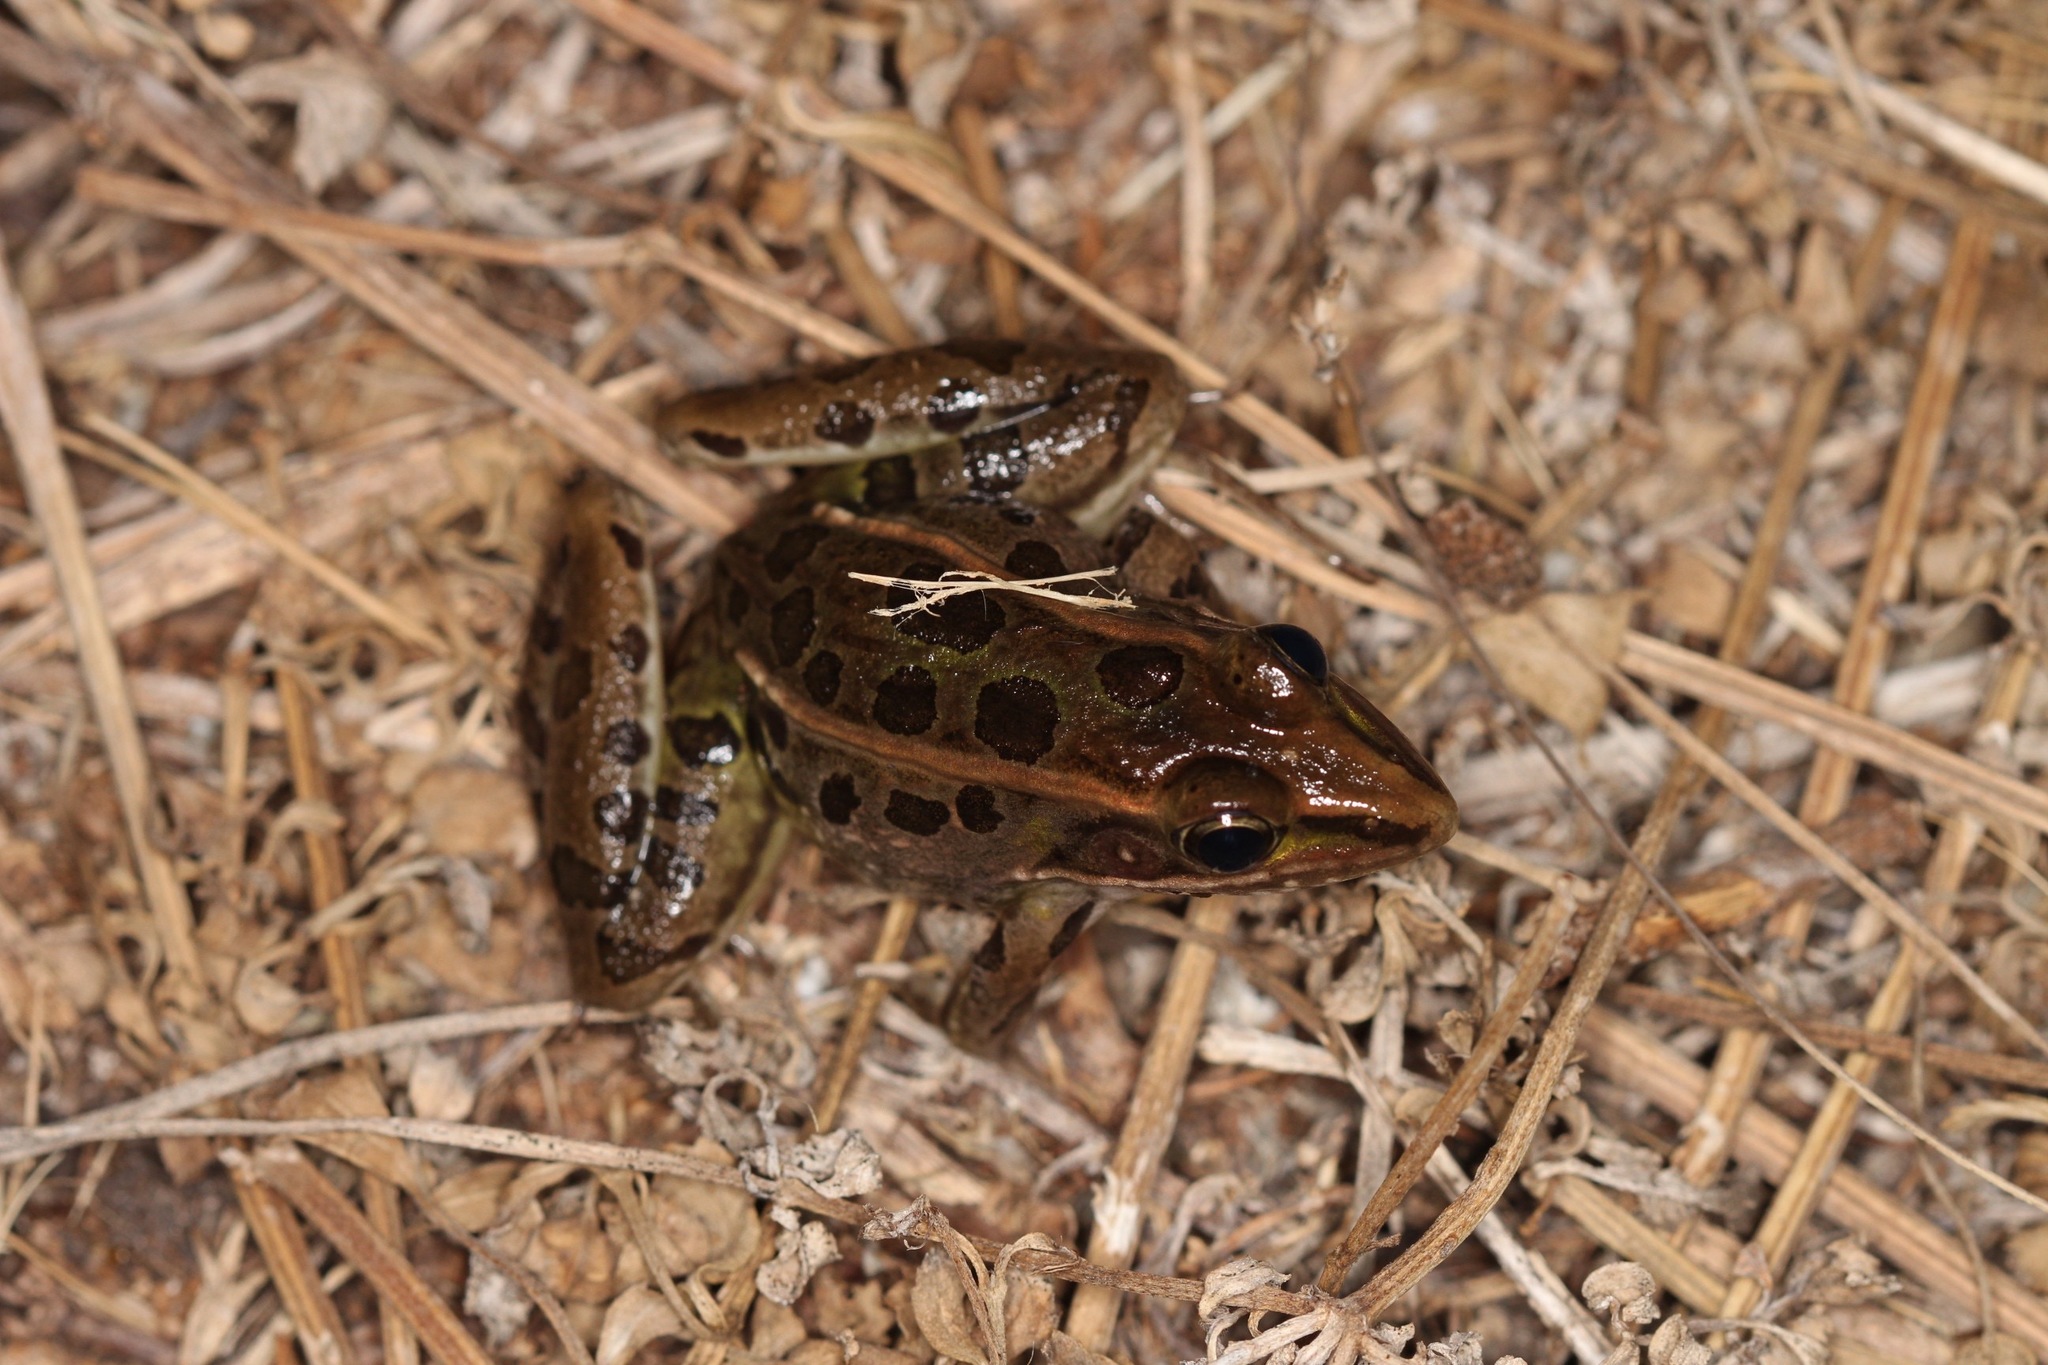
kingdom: Animalia
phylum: Chordata
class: Amphibia
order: Anura
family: Ranidae
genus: Lithobates
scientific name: Lithobates sphenocephalus
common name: Southern leopard frog
